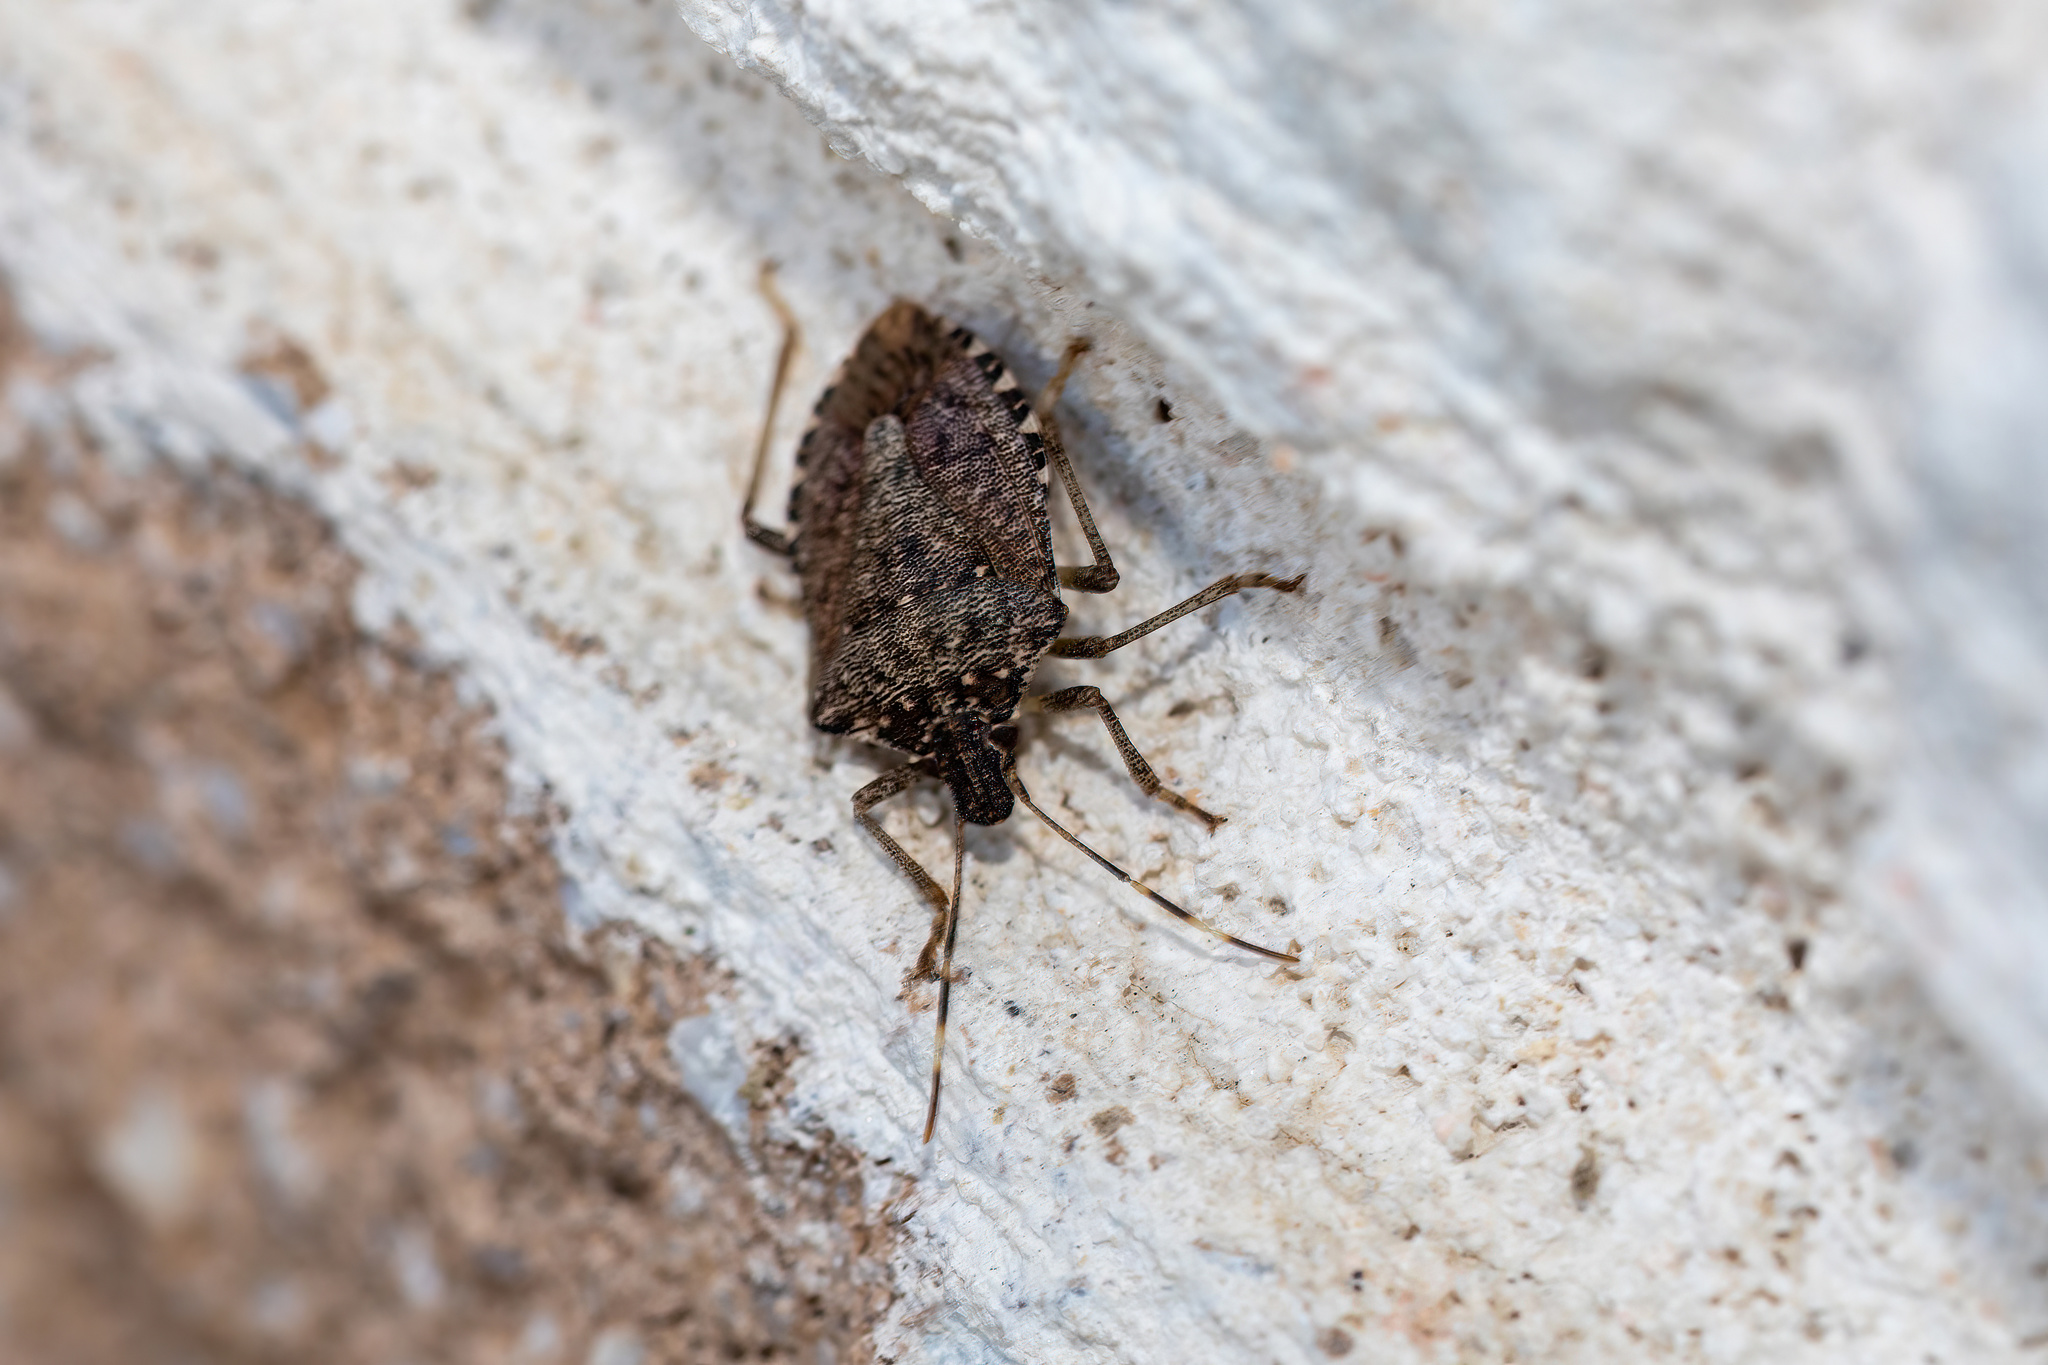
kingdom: Animalia
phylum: Arthropoda
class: Insecta
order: Hemiptera
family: Pentatomidae
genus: Halyomorpha
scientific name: Halyomorpha halys
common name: Brown marmorated stink bug
